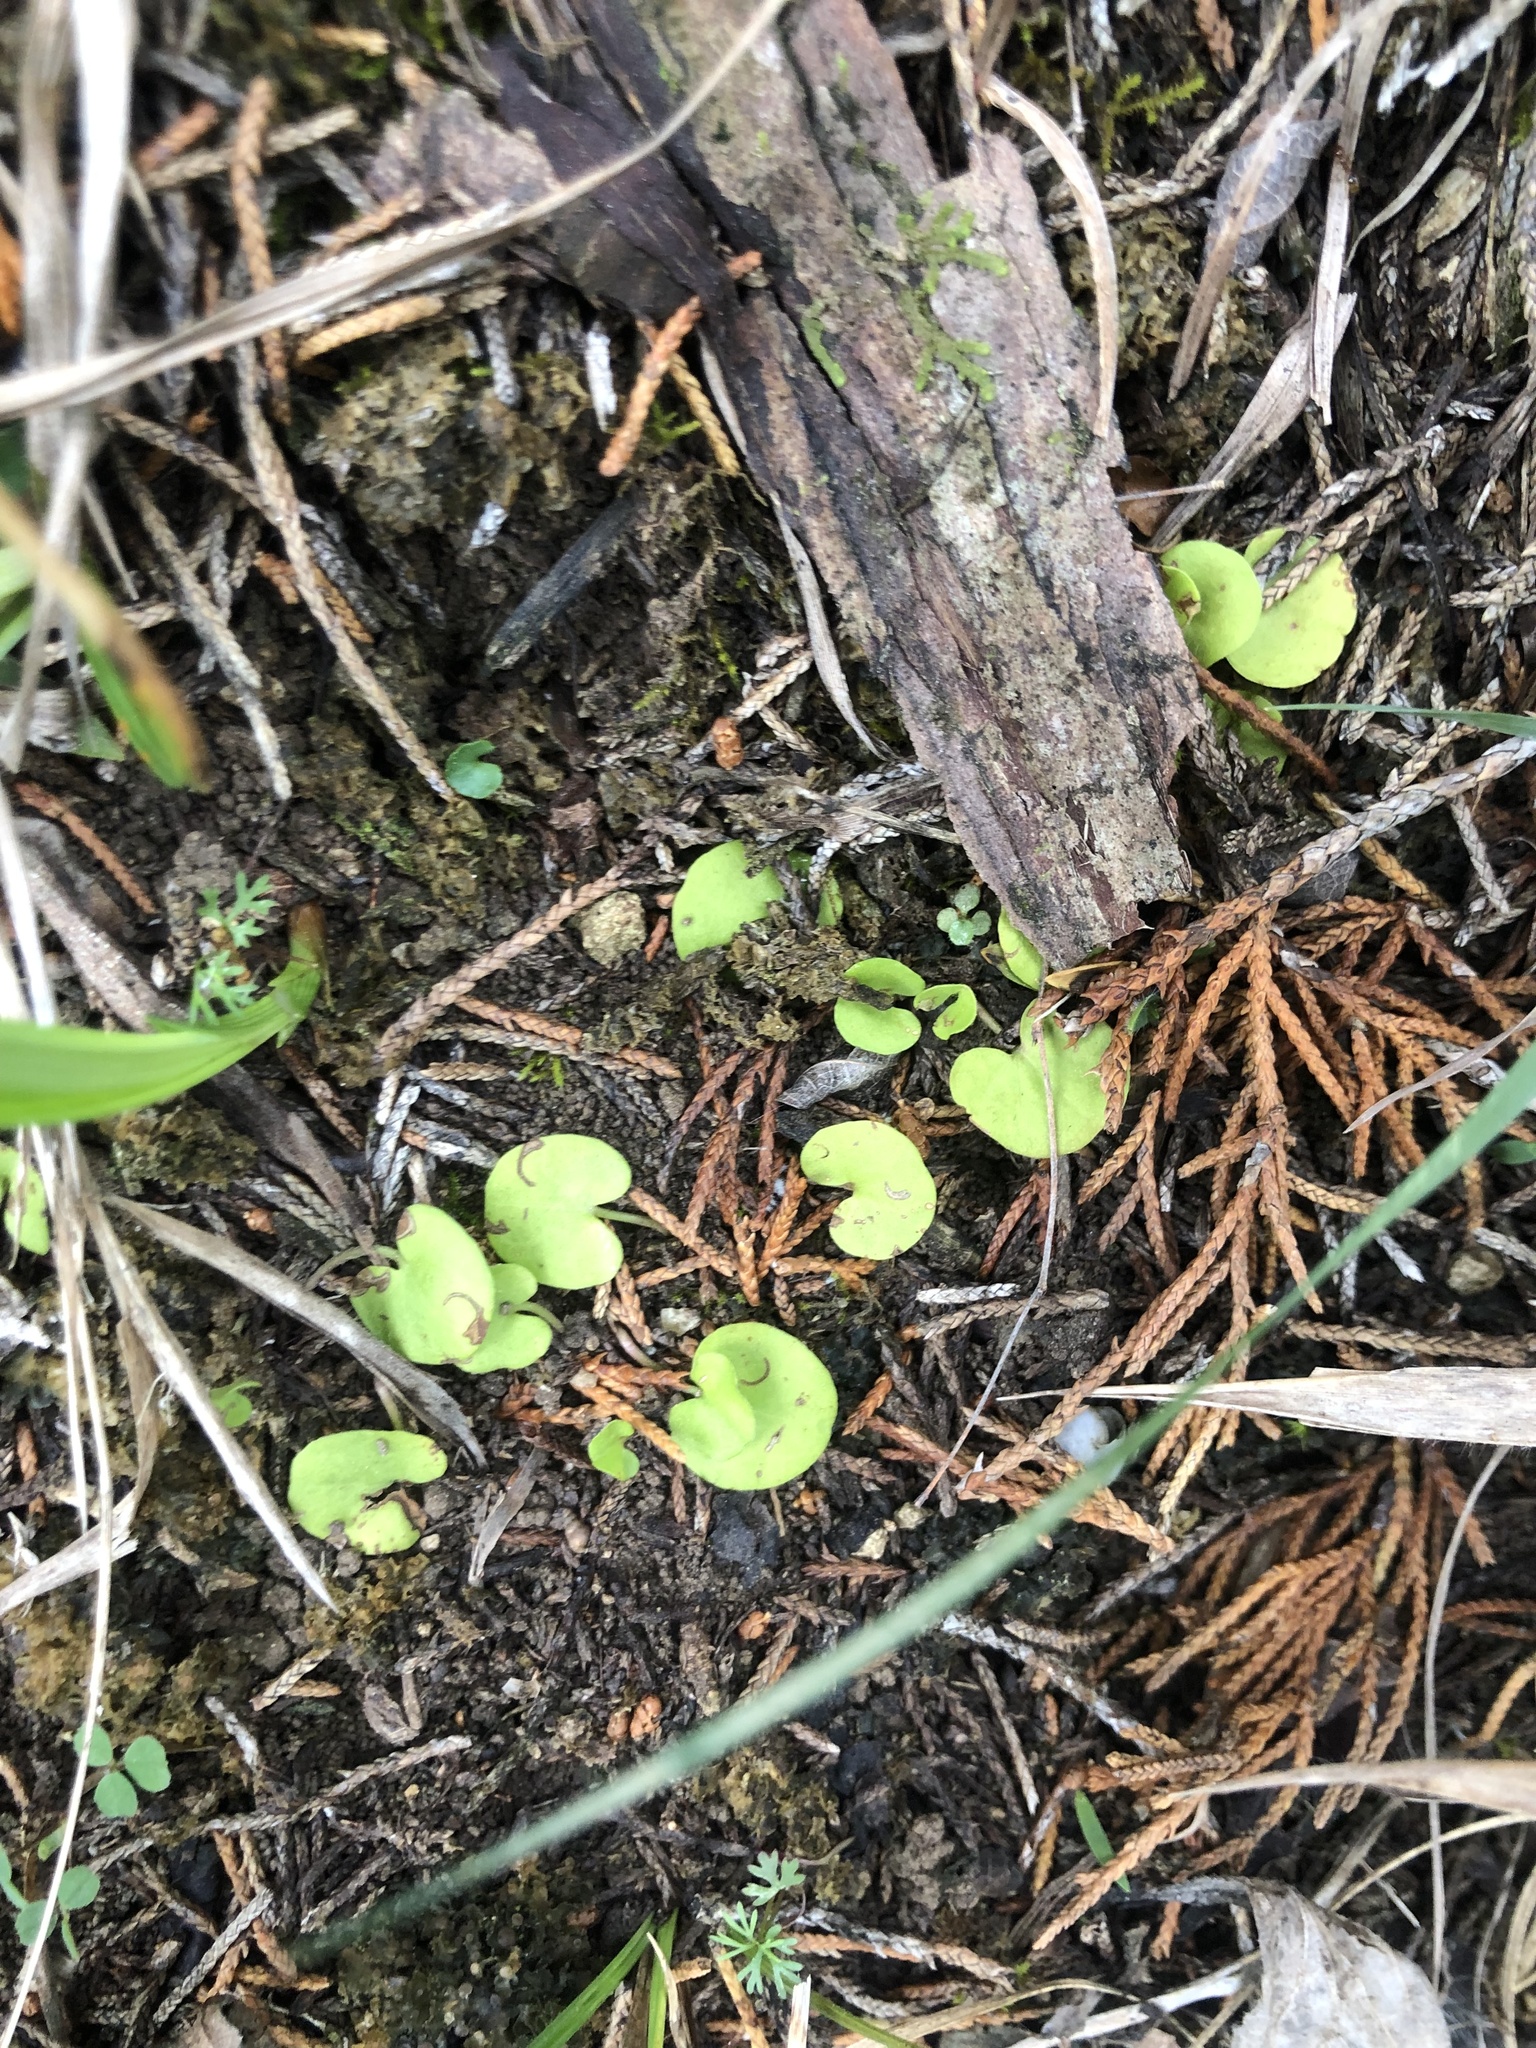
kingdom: Plantae
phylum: Tracheophyta
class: Magnoliopsida
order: Solanales
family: Convolvulaceae
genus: Dichondra
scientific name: Dichondra carolinensis
